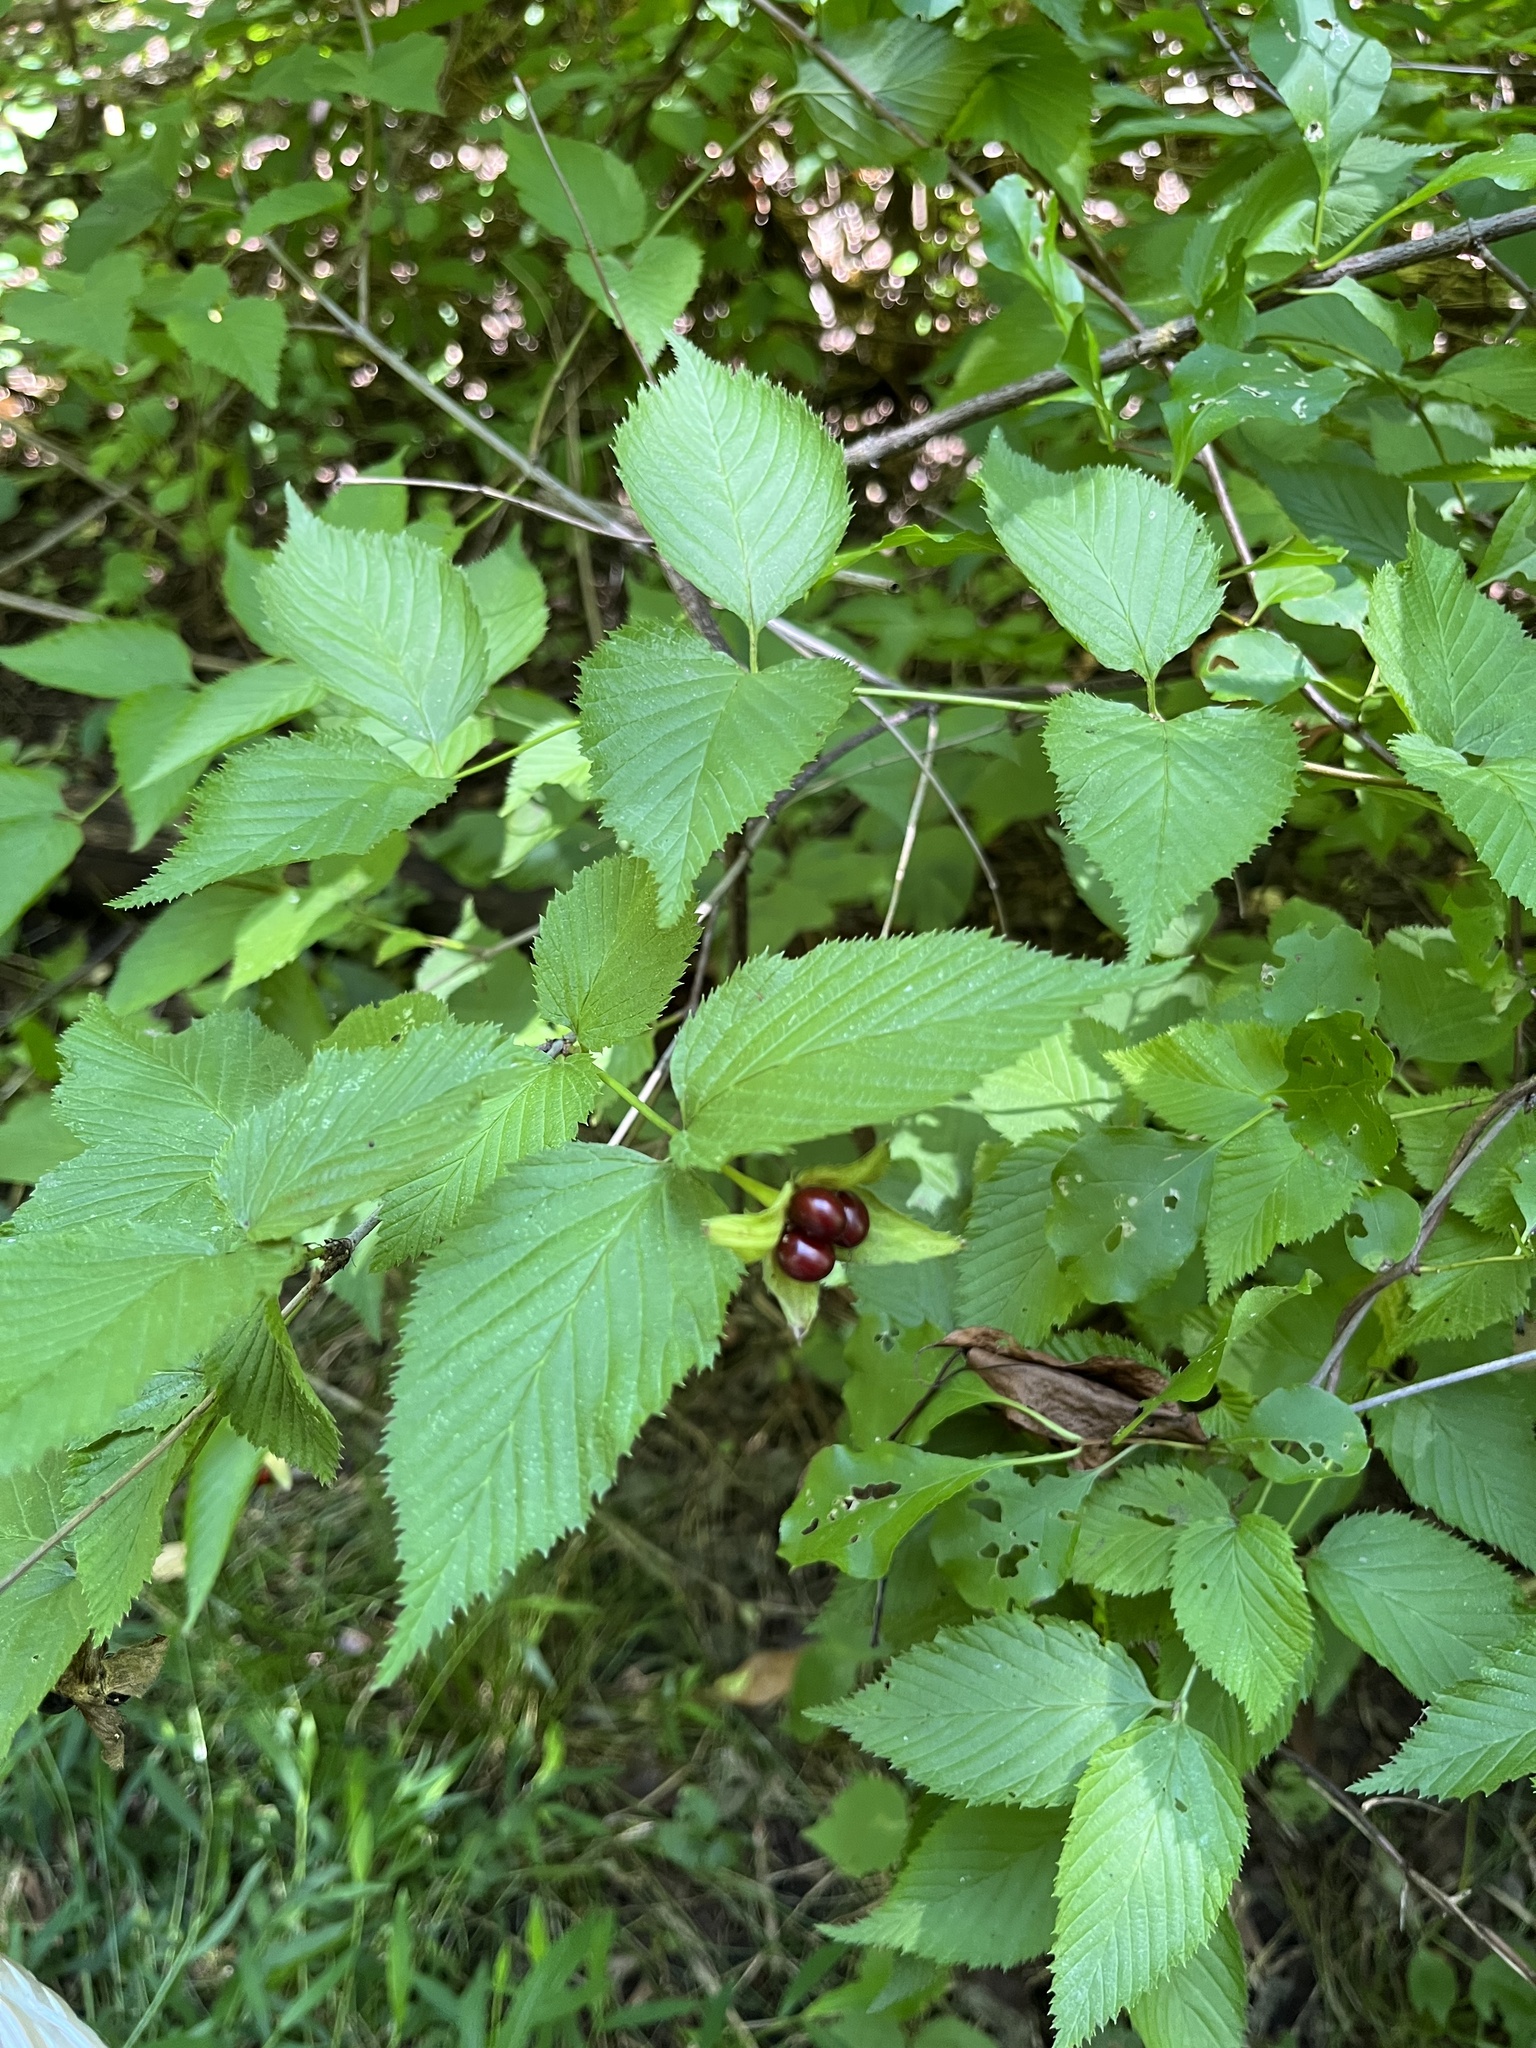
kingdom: Plantae
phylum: Tracheophyta
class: Magnoliopsida
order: Rosales
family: Rosaceae
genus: Rhodotypos
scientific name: Rhodotypos scandens
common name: Jetbead
